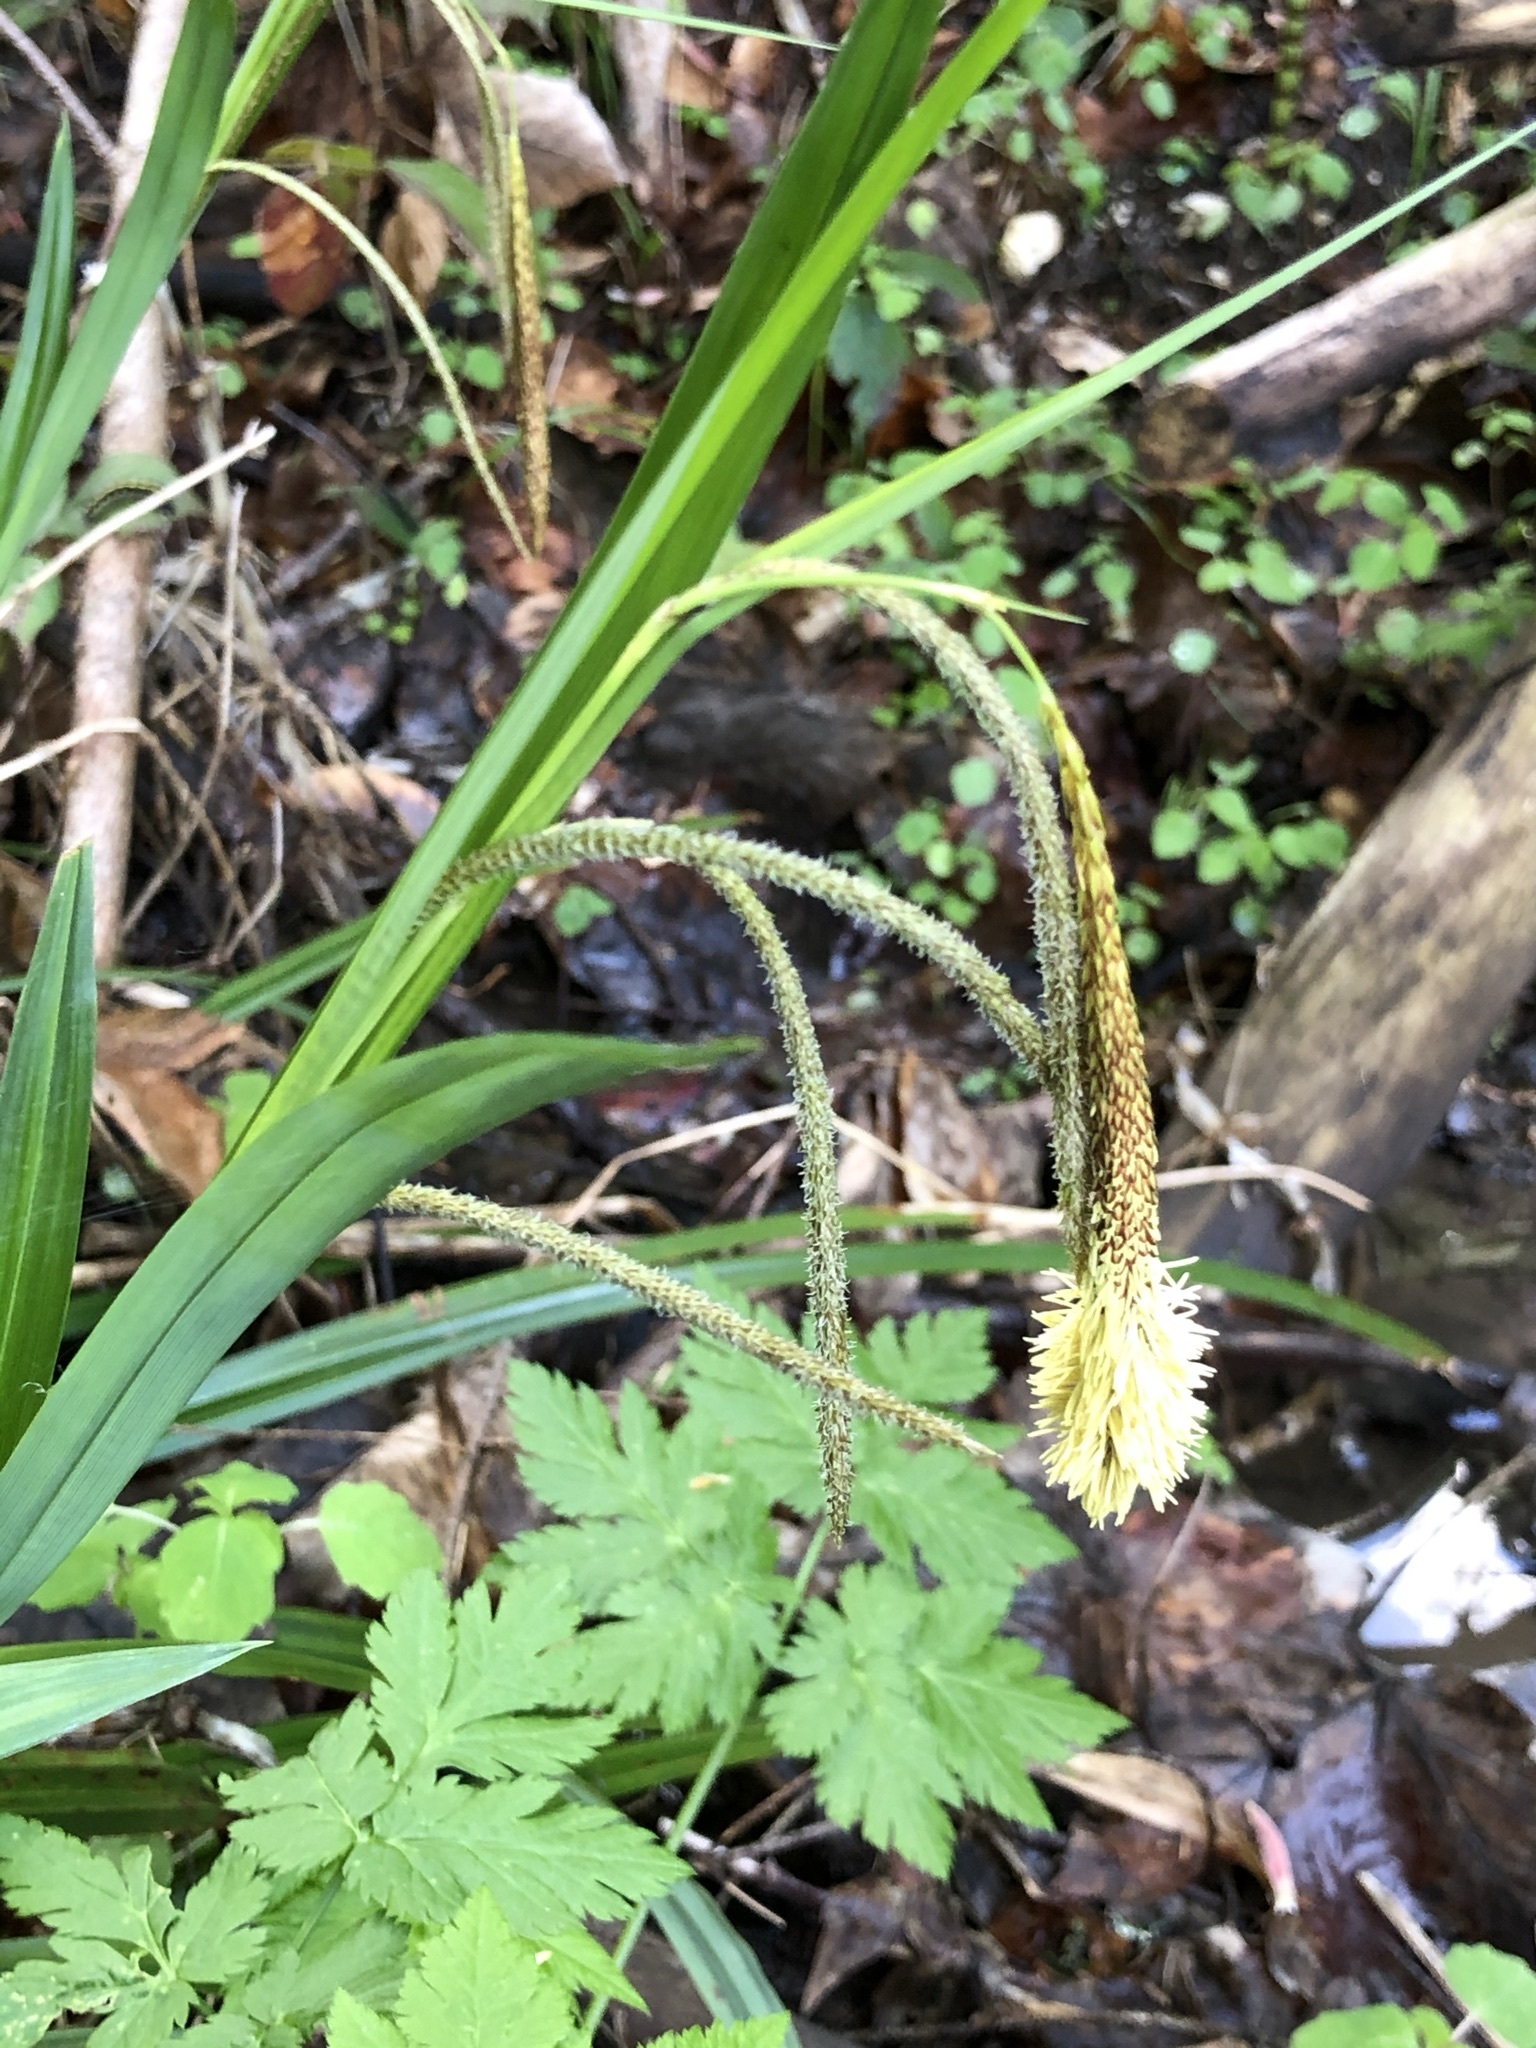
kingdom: Plantae
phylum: Tracheophyta
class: Liliopsida
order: Poales
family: Cyperaceae
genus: Carex
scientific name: Carex agastachys
